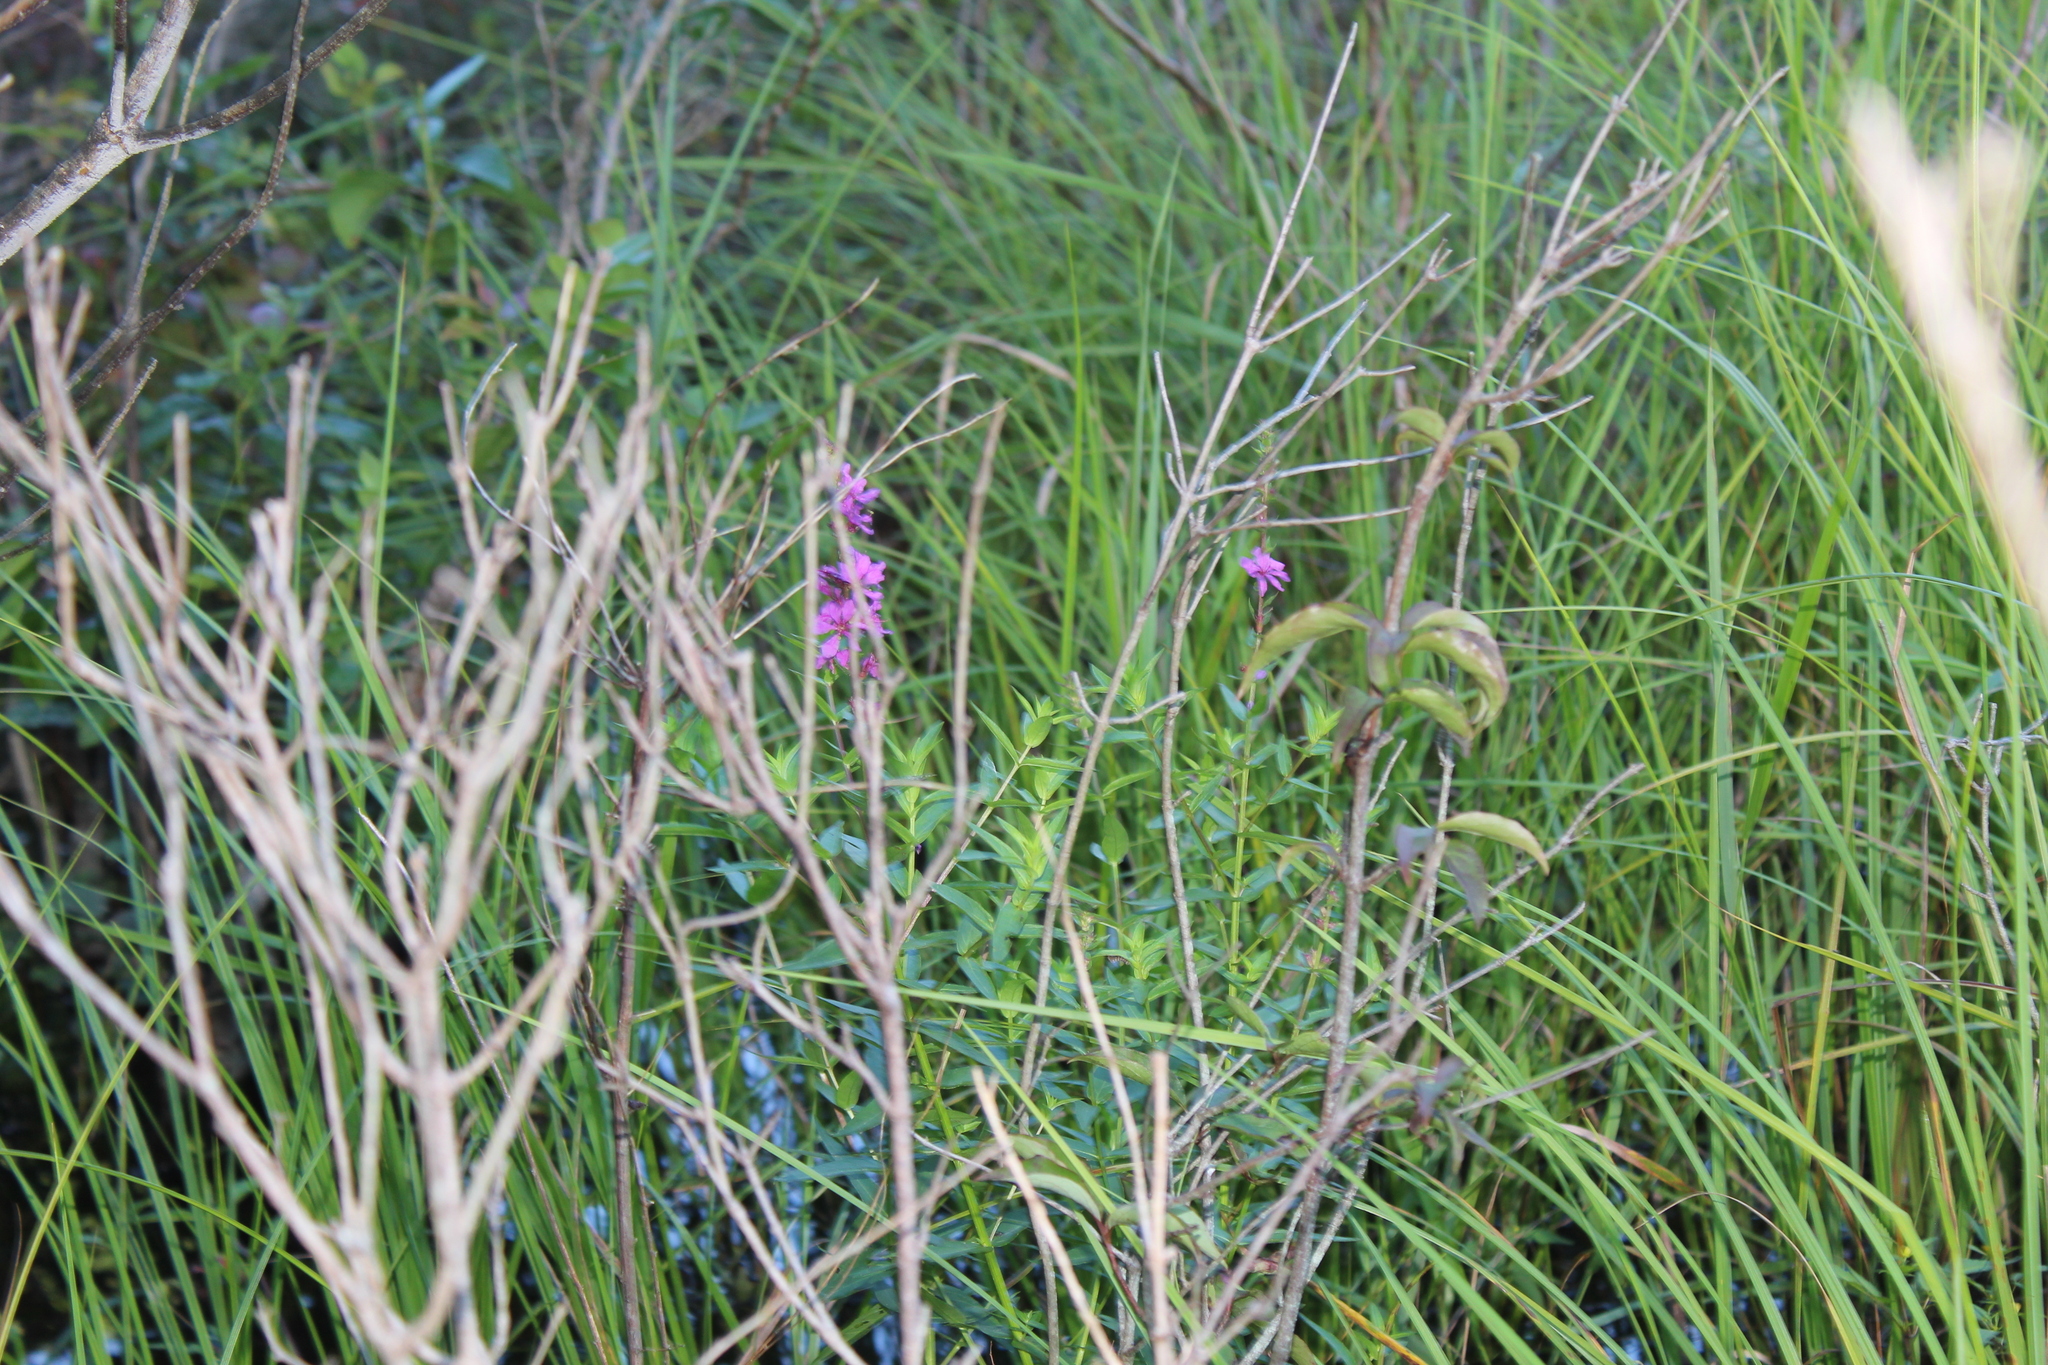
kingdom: Plantae
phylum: Tracheophyta
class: Magnoliopsida
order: Myrtales
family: Lythraceae
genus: Lythrum
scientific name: Lythrum salicaria
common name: Purple loosestrife
